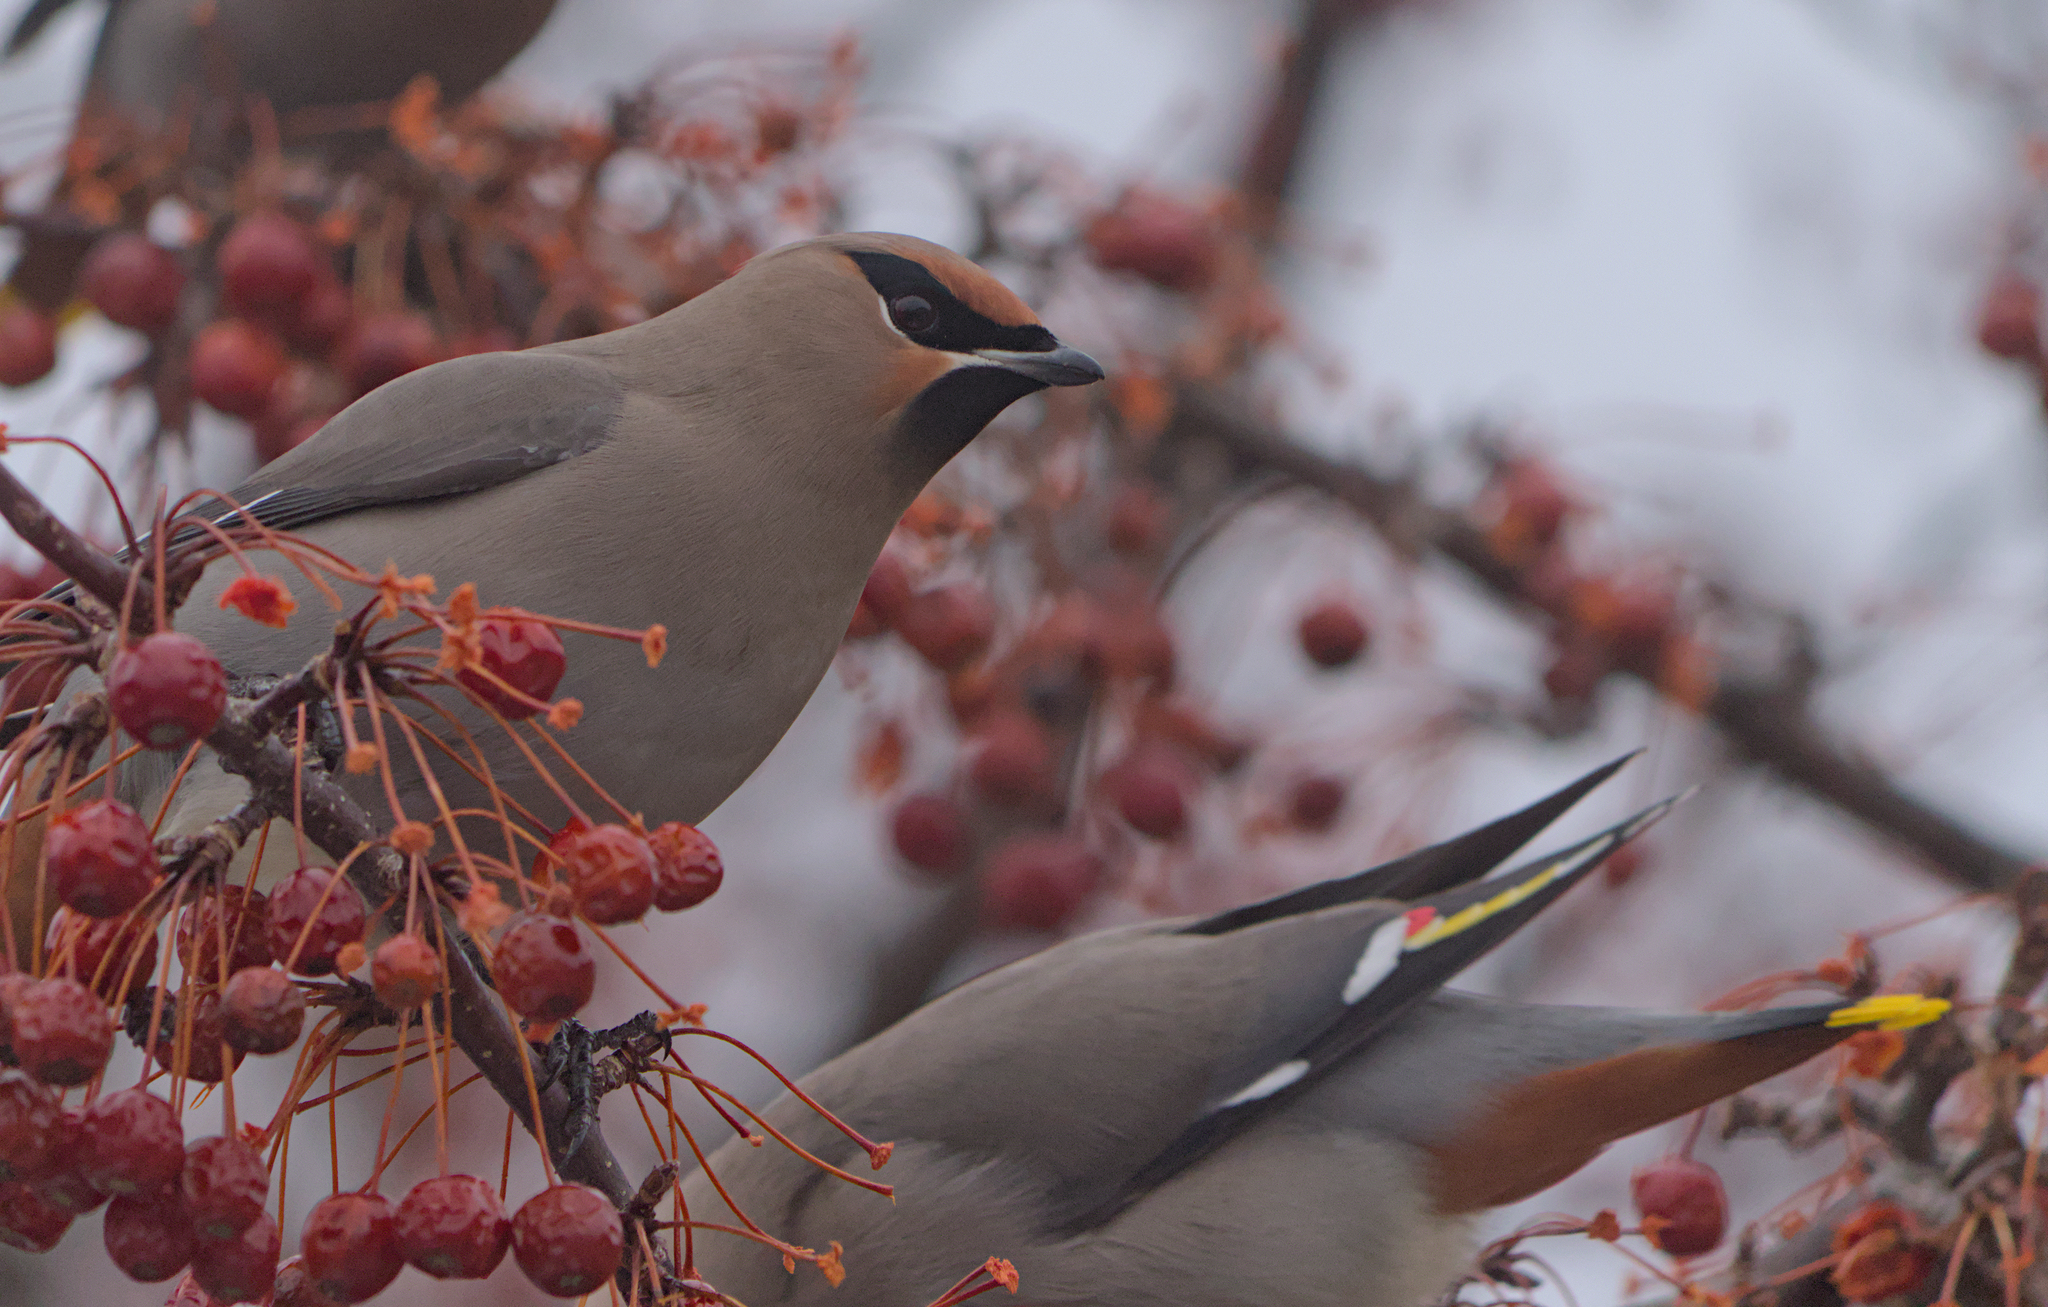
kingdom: Animalia
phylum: Chordata
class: Aves
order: Passeriformes
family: Bombycillidae
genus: Bombycilla
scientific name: Bombycilla garrulus
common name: Bohemian waxwing
